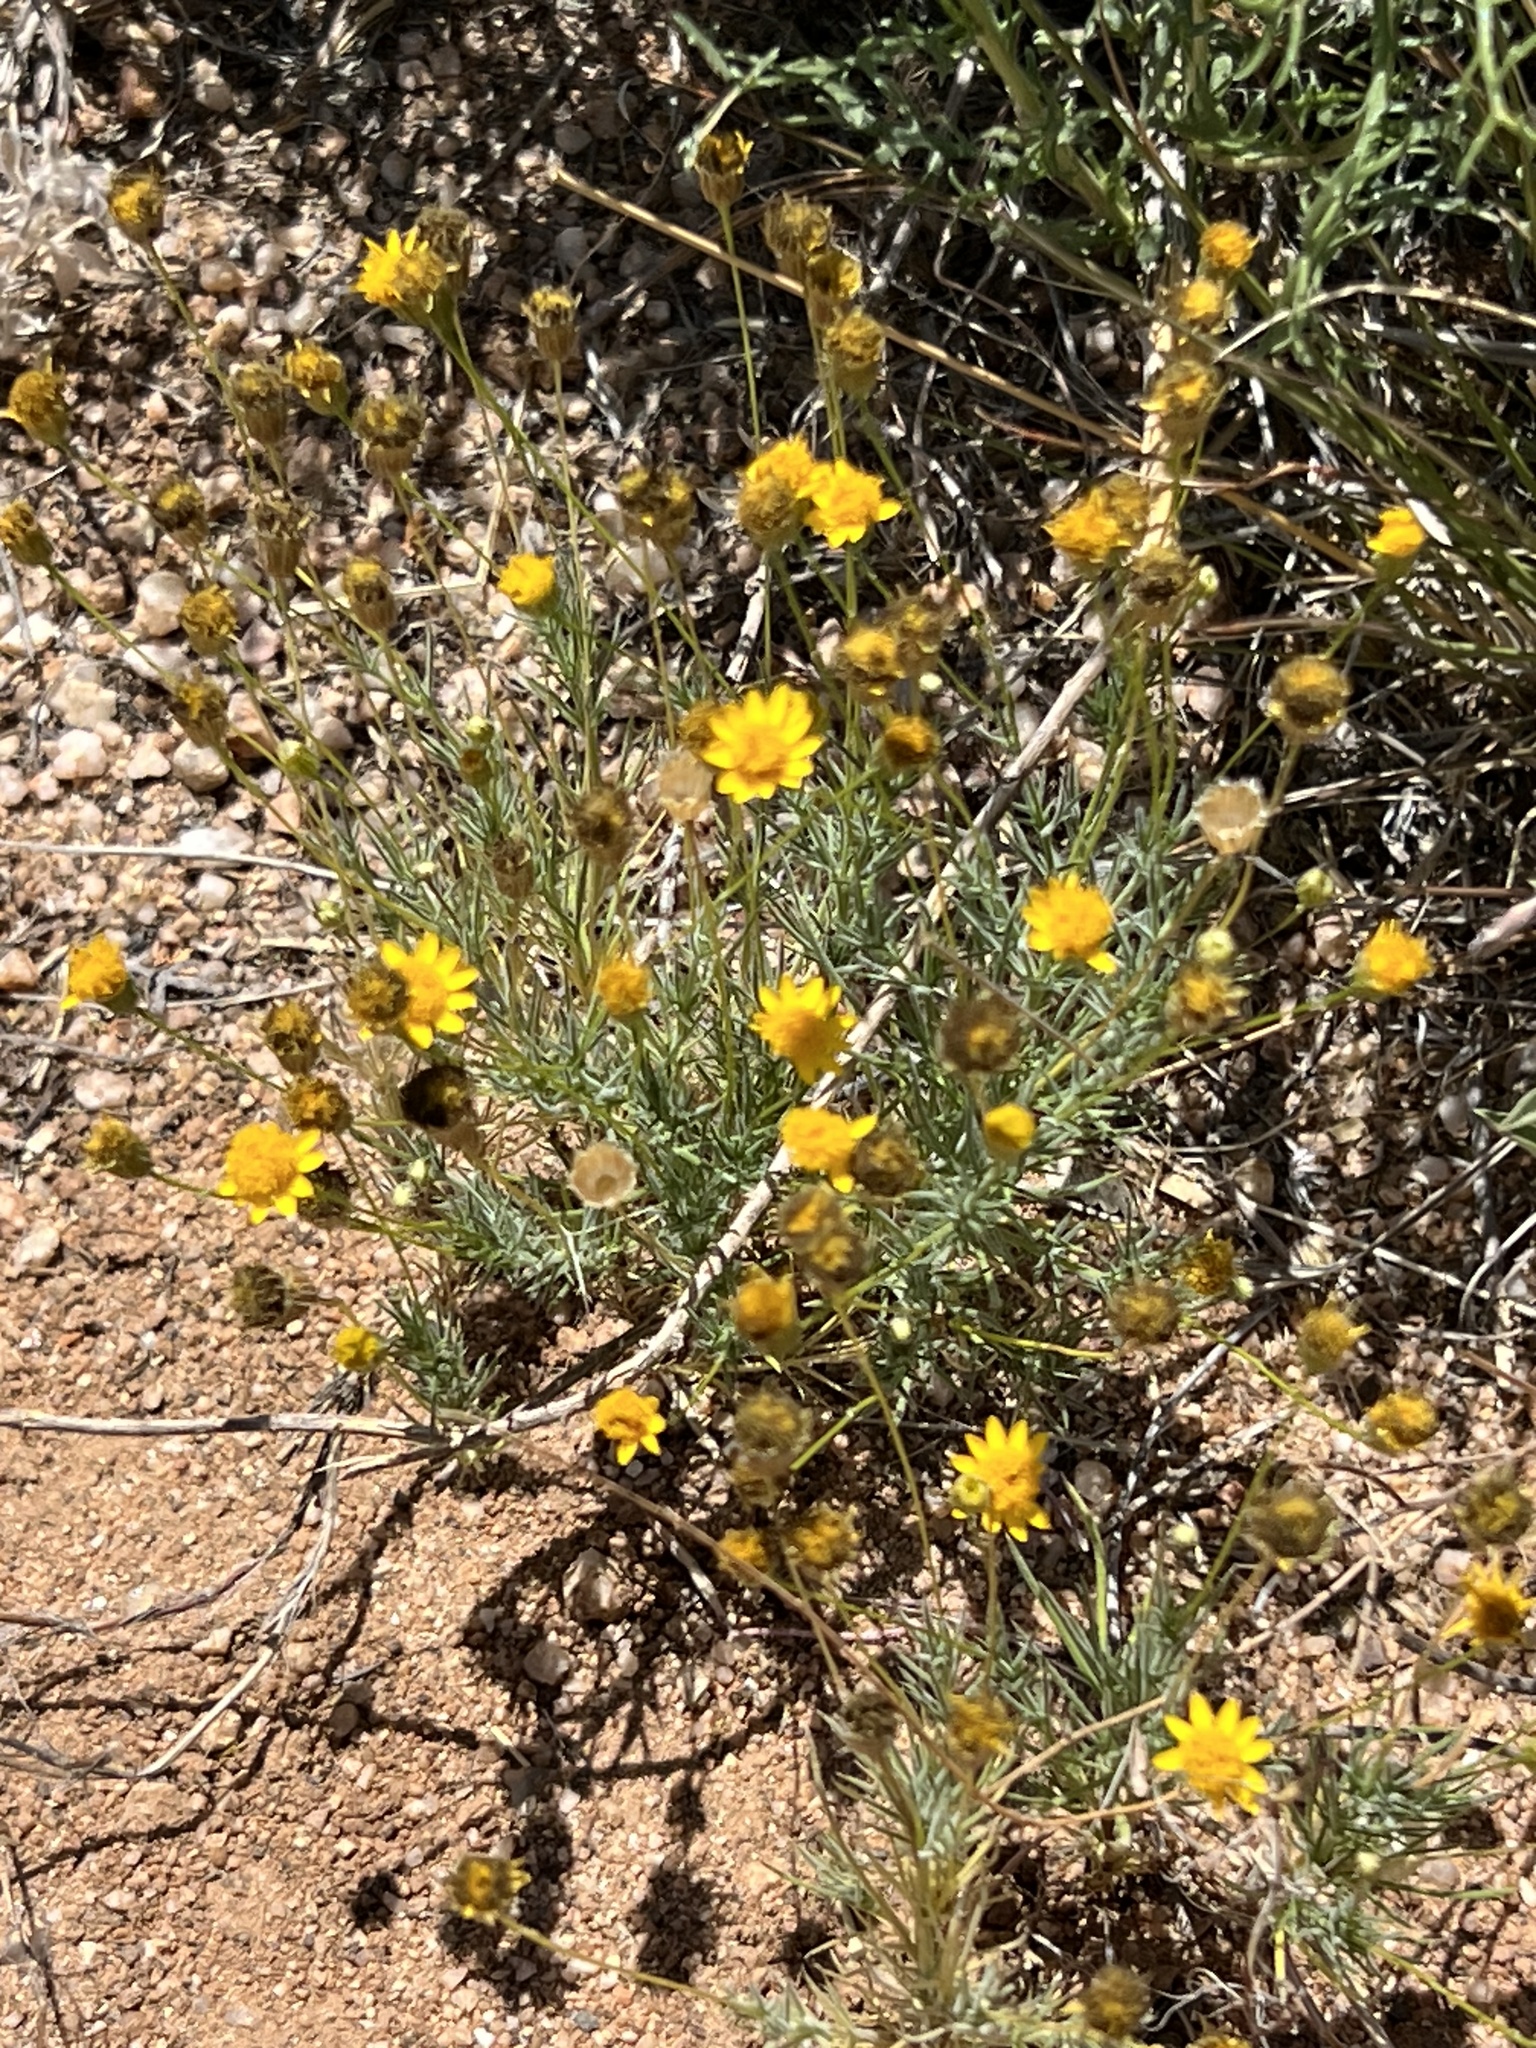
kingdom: Plantae
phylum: Tracheophyta
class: Magnoliopsida
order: Asterales
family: Asteraceae
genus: Thymophylla
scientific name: Thymophylla pentachaeta
